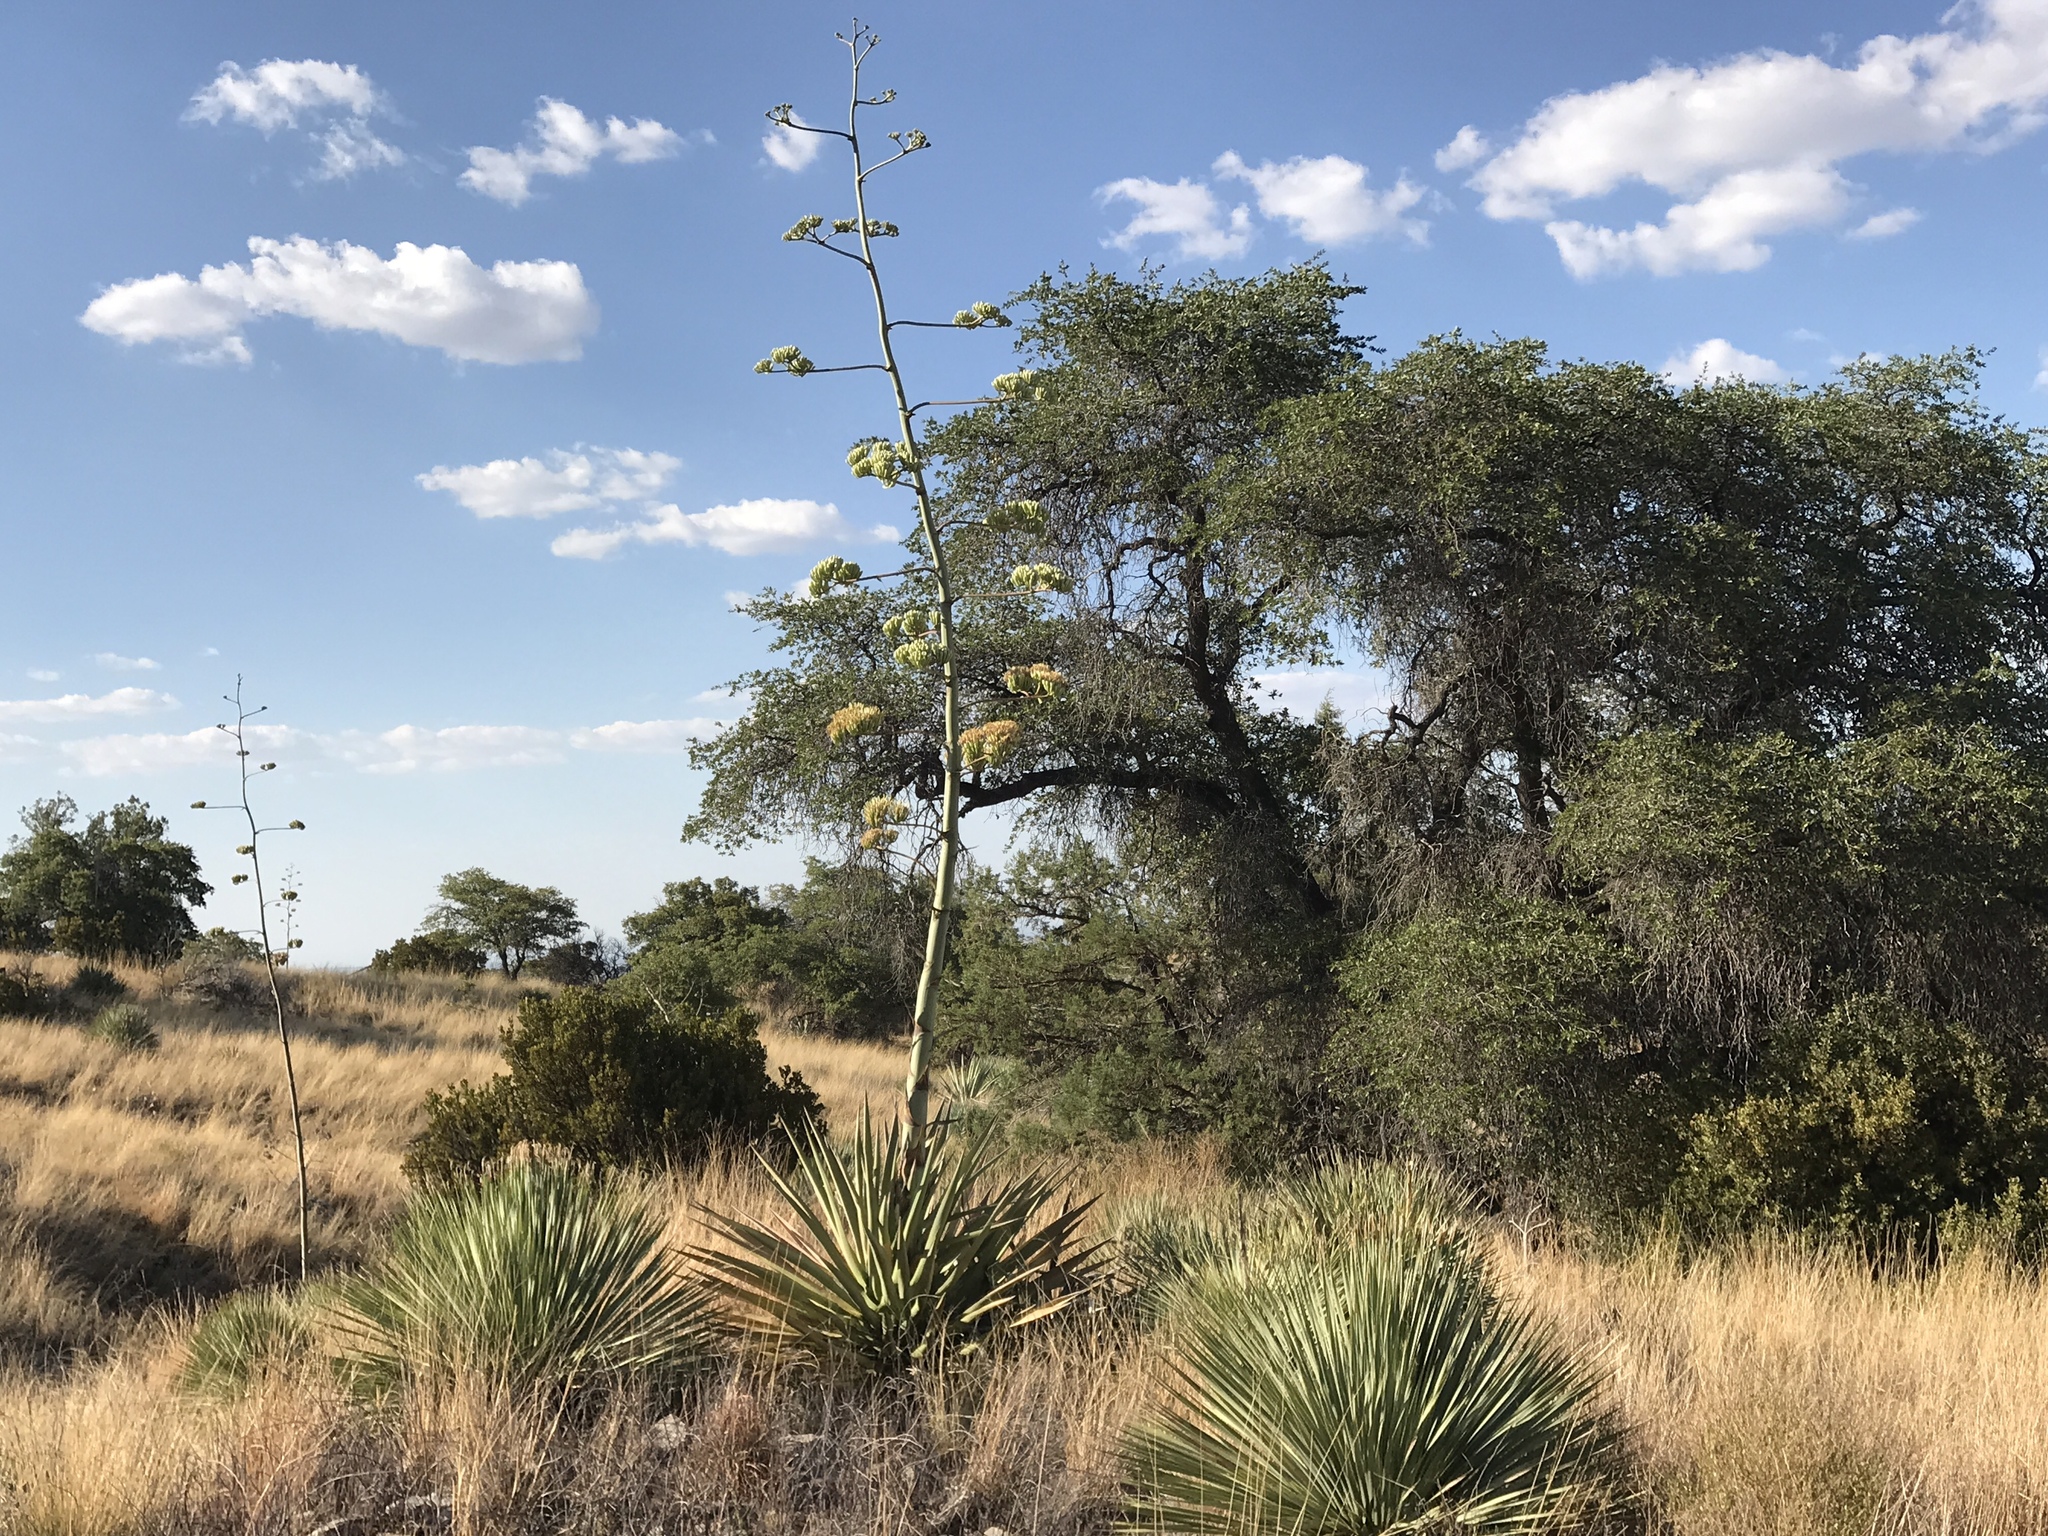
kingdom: Plantae
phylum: Tracheophyta
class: Liliopsida
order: Asparagales
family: Asparagaceae
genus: Agave
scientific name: Agave palmeri
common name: Palmer agave
